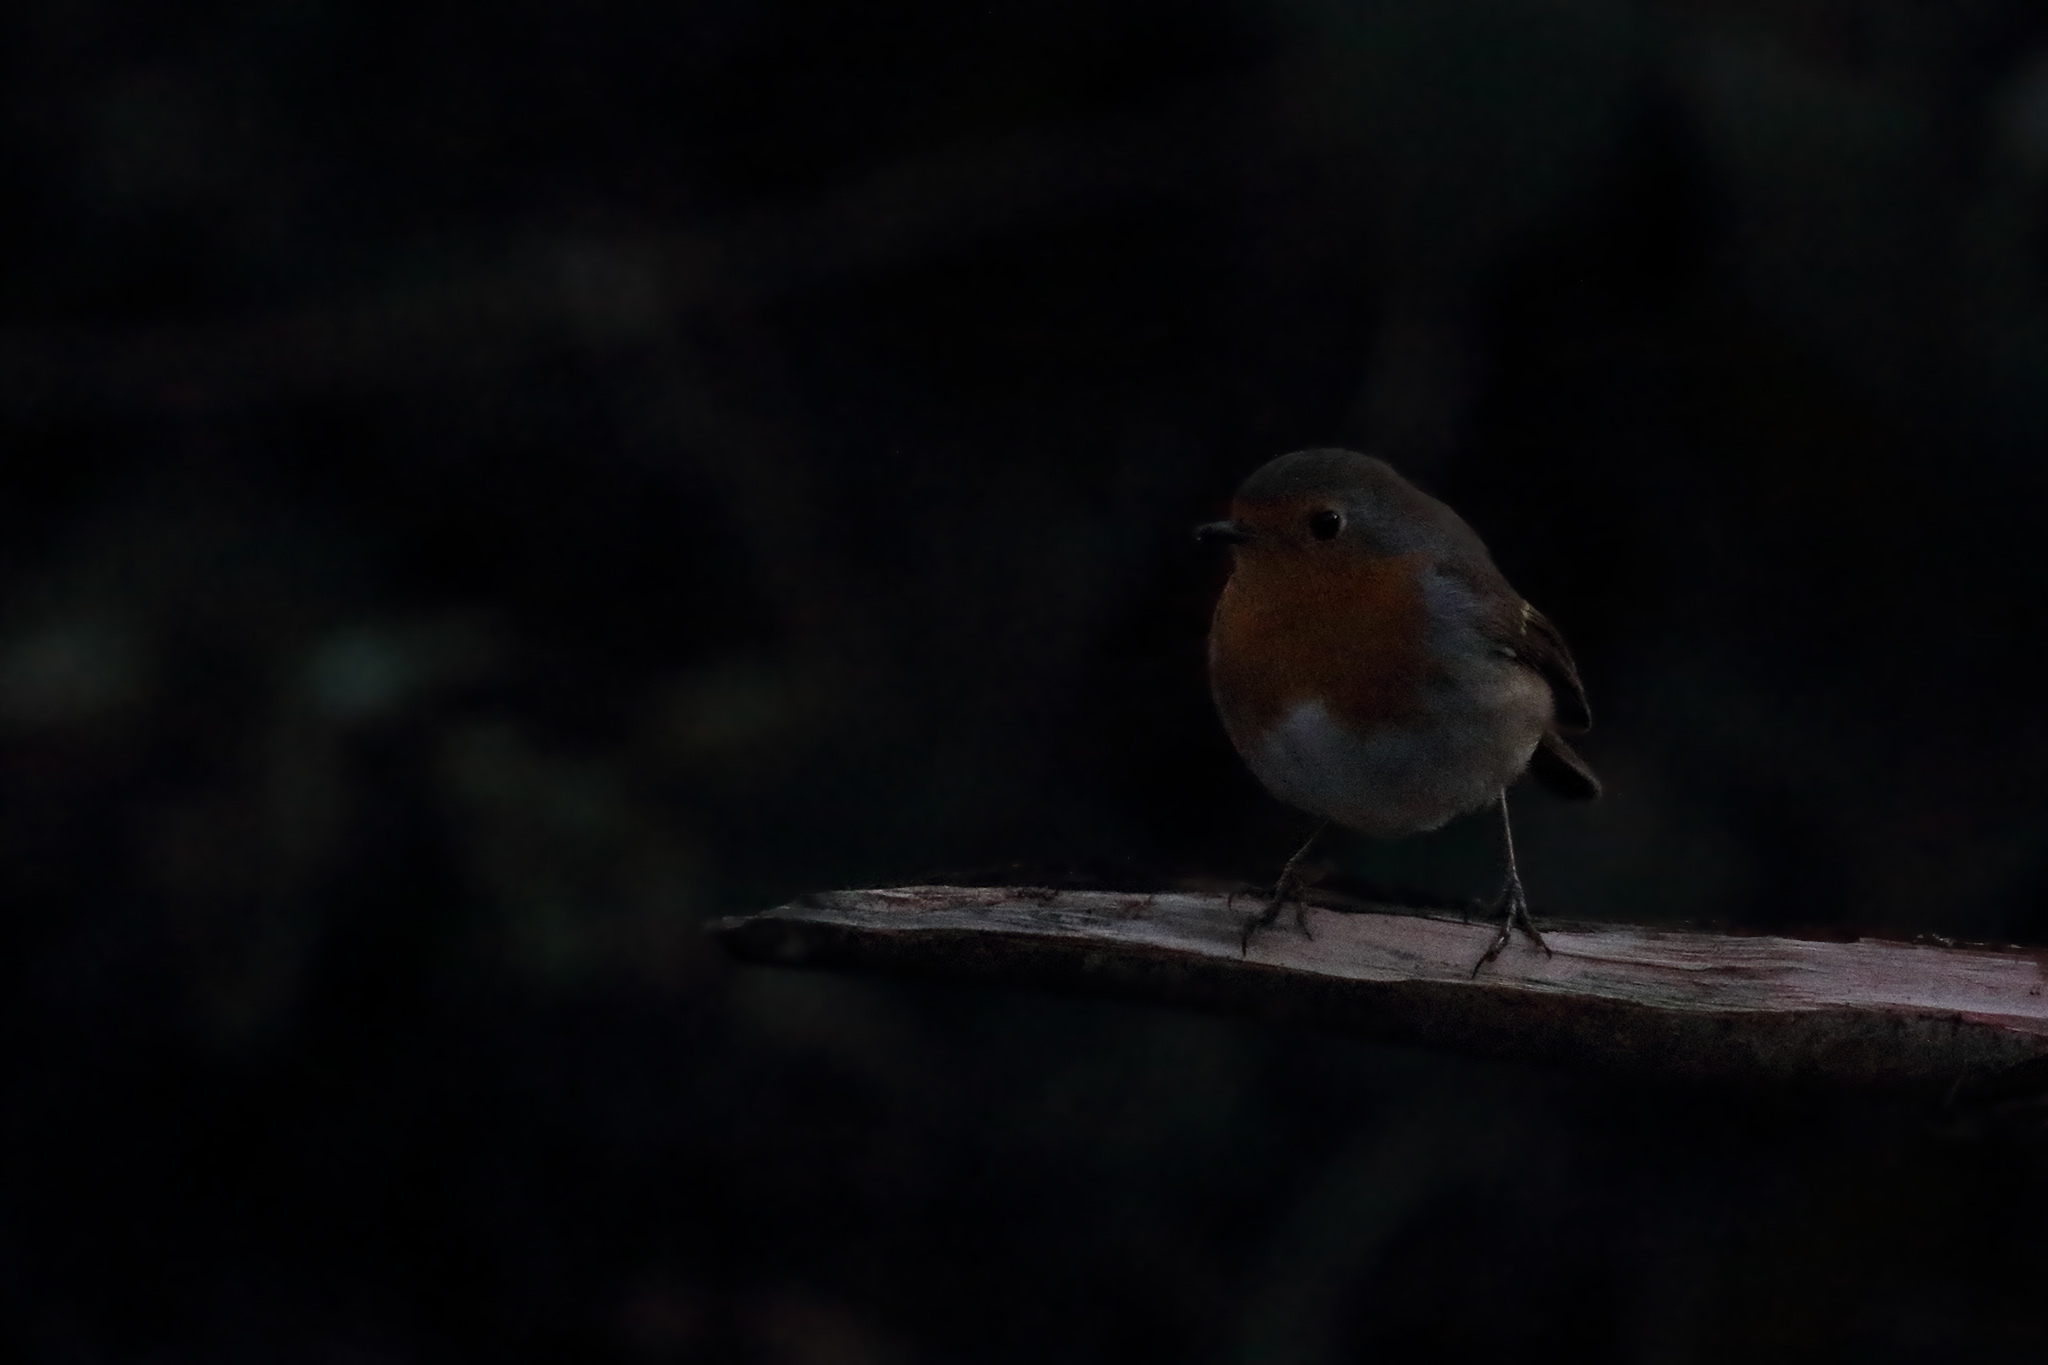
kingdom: Animalia
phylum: Chordata
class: Aves
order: Passeriformes
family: Muscicapidae
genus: Erithacus
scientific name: Erithacus rubecula
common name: European robin
